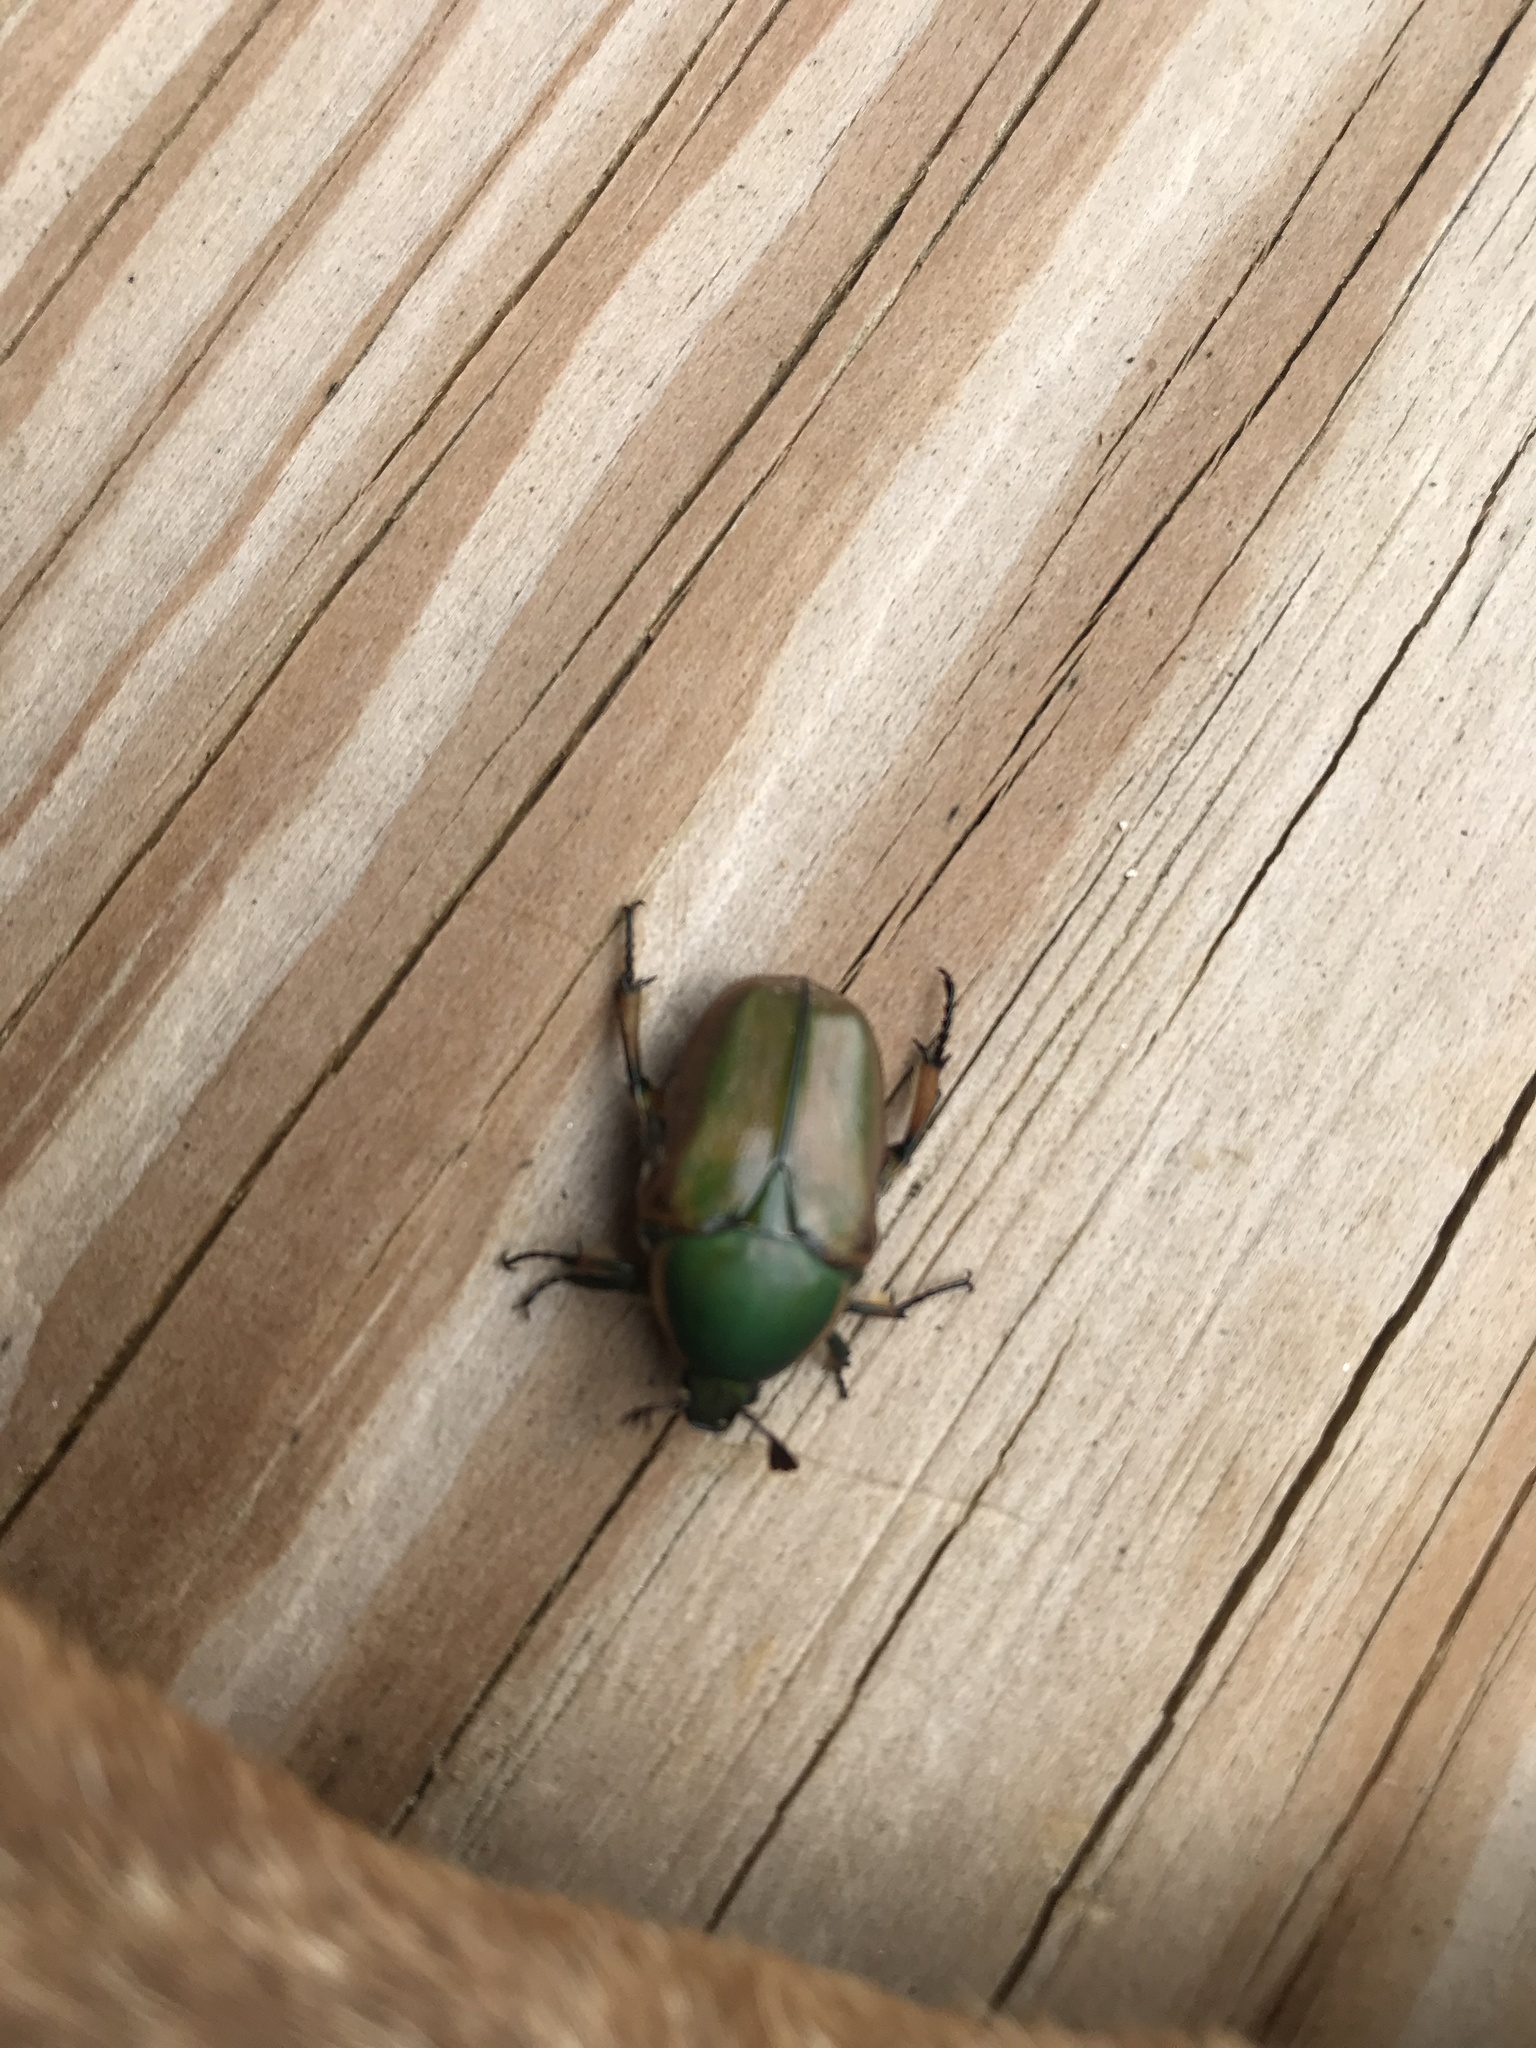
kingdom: Animalia
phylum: Arthropoda
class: Insecta
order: Coleoptera
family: Scarabaeidae
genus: Cotinis
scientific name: Cotinis nitida
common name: Common green june beetle
